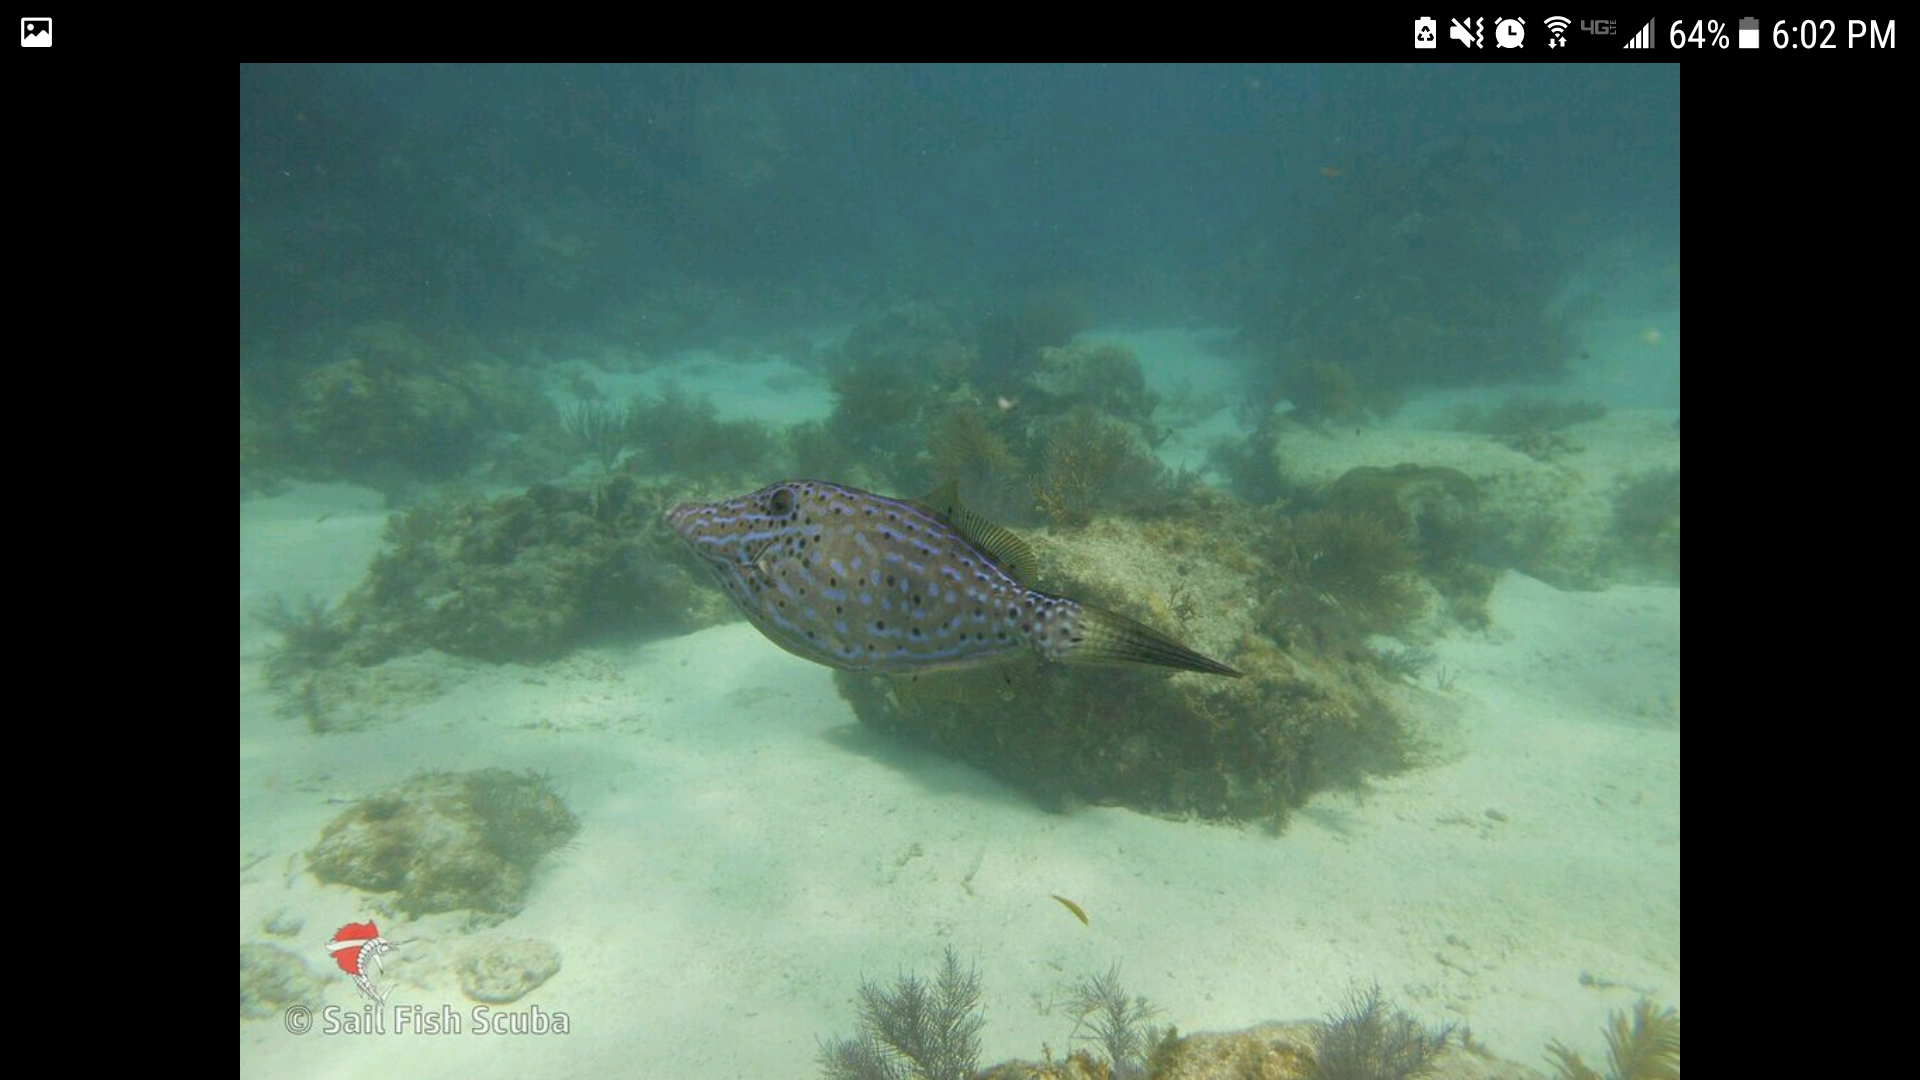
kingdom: Animalia
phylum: Chordata
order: Tetraodontiformes
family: Monacanthidae
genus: Aluterus
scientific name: Aluterus scriptus
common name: Scribbled leatherjacket filefish
